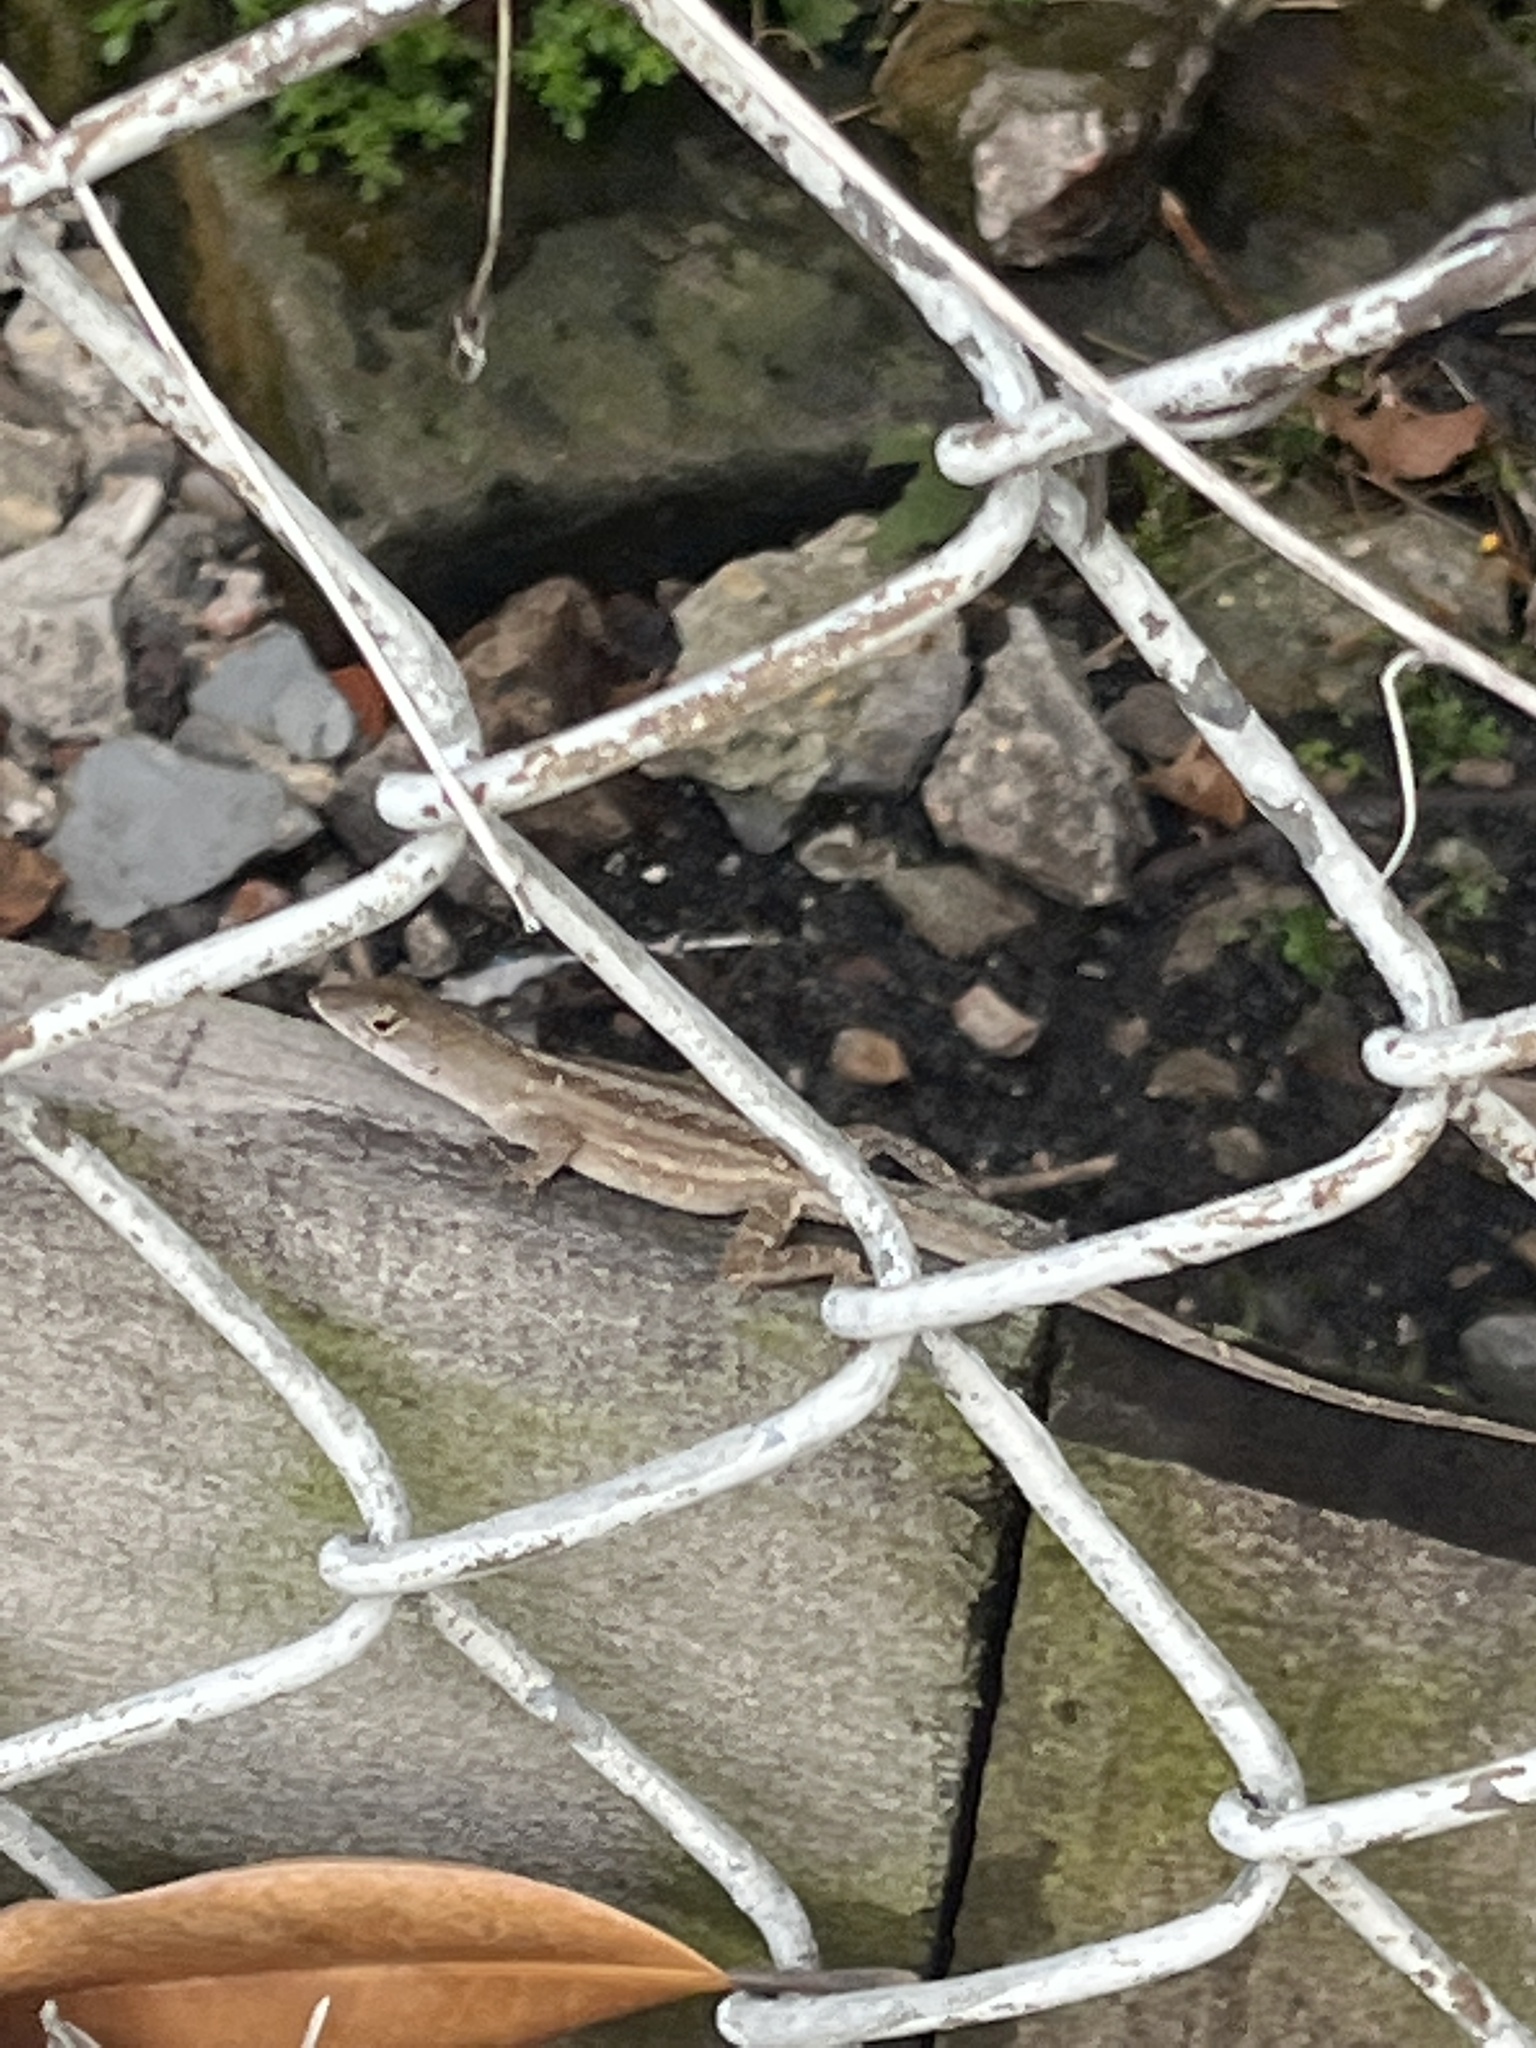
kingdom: Animalia
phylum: Chordata
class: Squamata
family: Dactyloidae
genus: Anolis
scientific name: Anolis sagrei
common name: Brown anole
